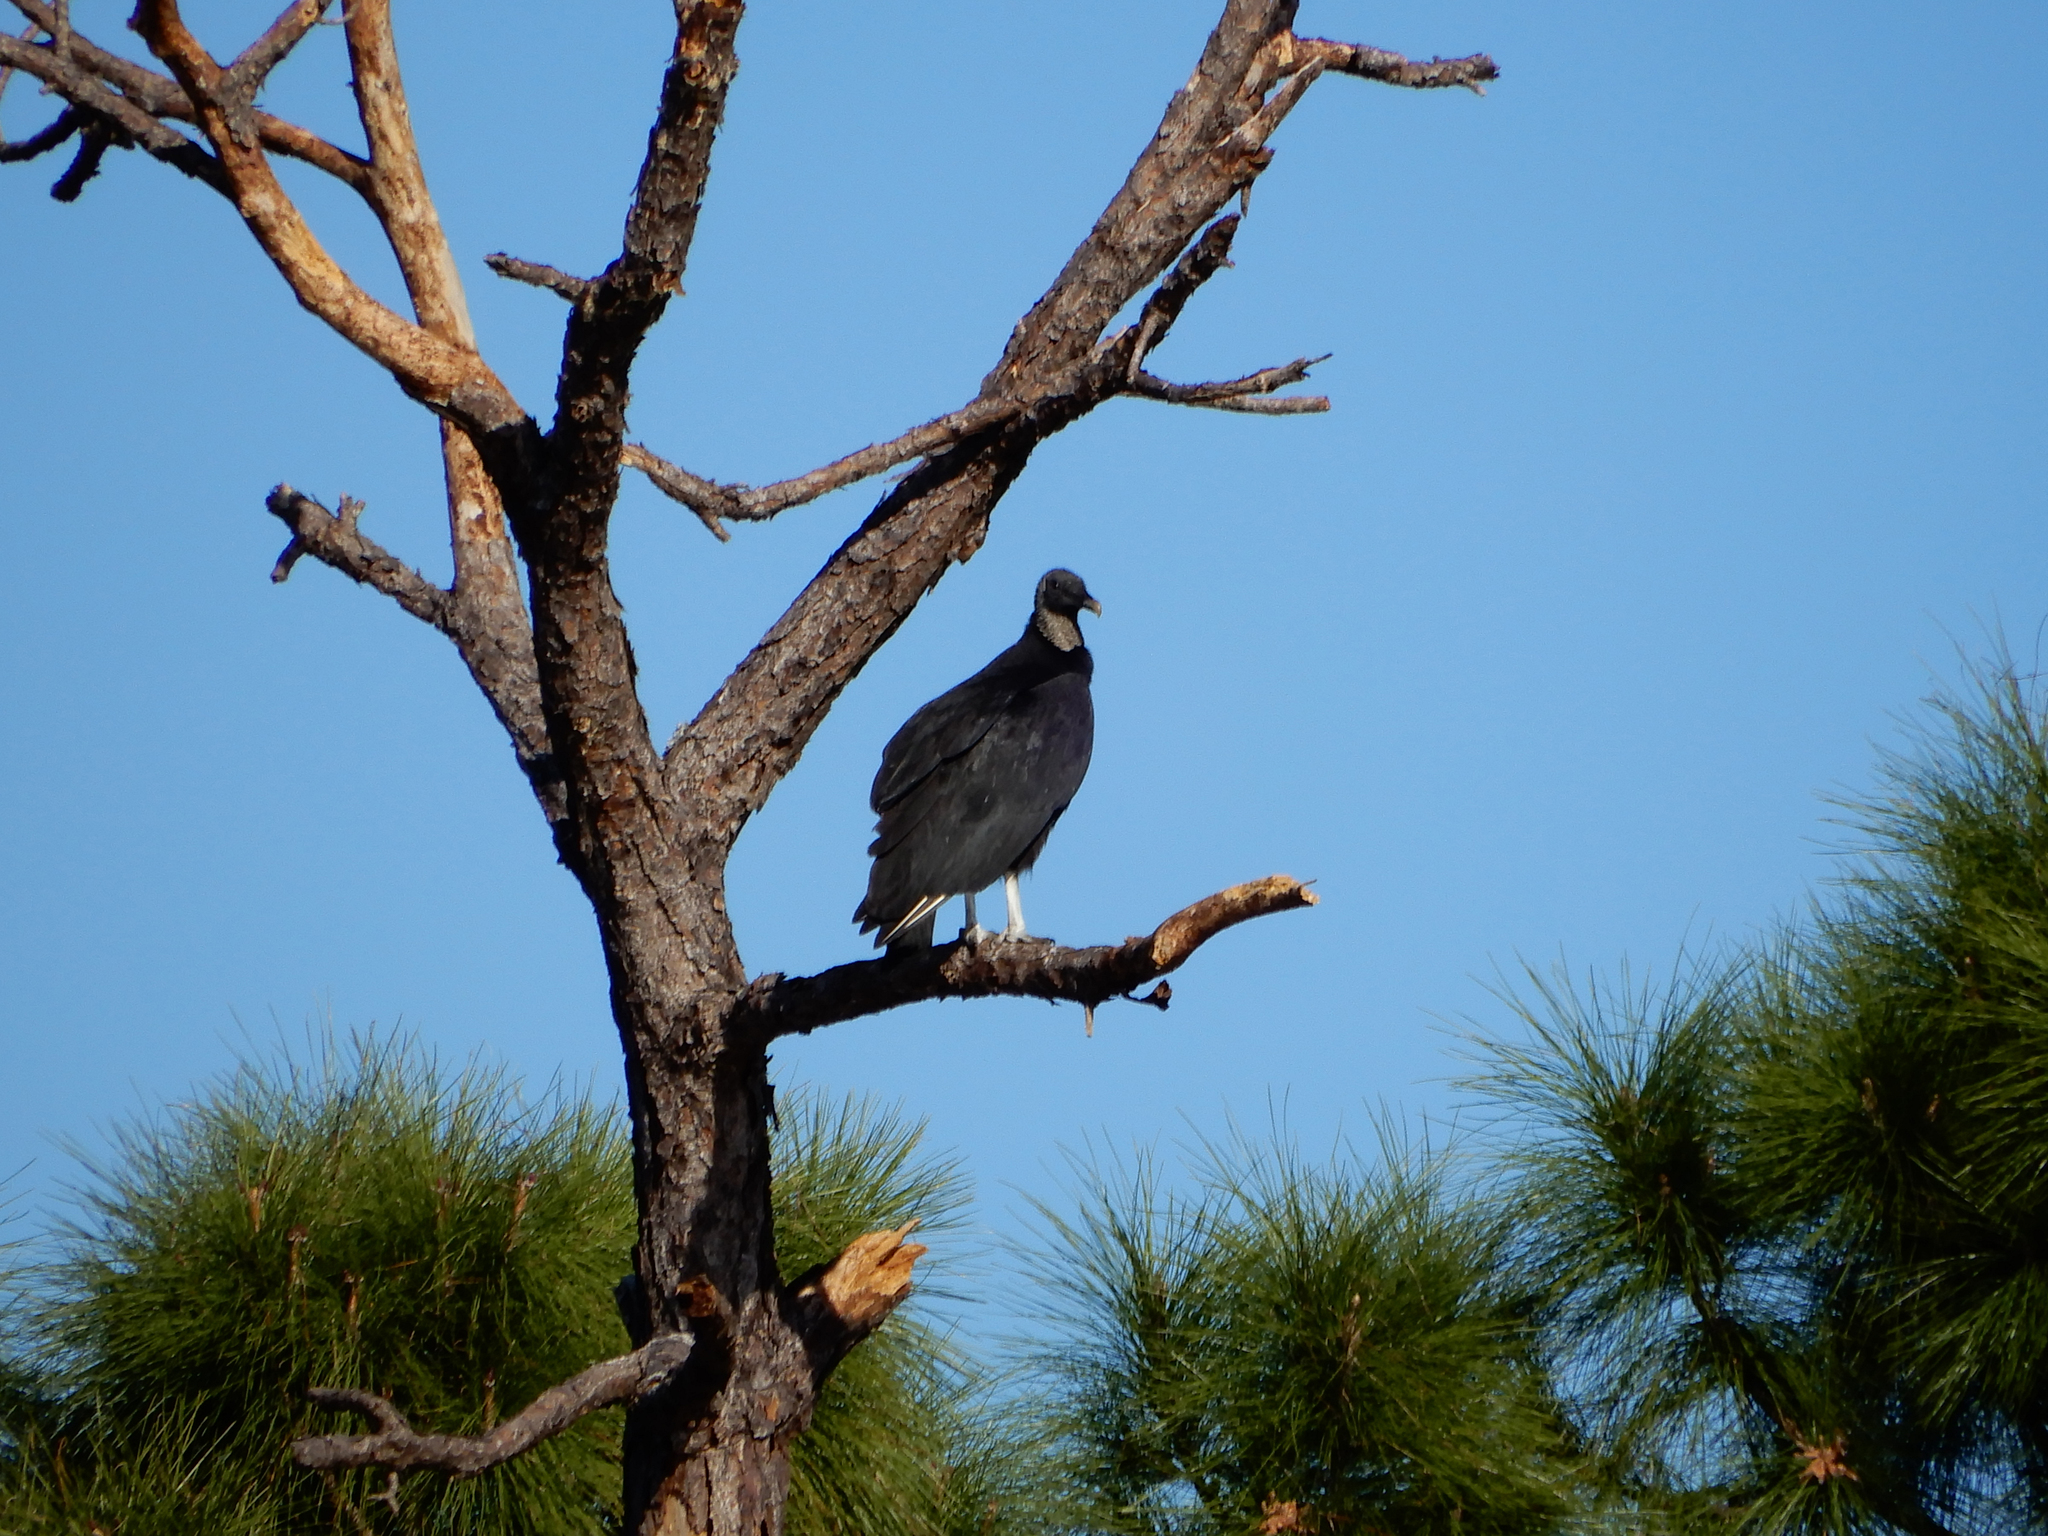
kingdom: Animalia
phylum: Chordata
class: Aves
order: Accipitriformes
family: Cathartidae
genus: Coragyps
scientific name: Coragyps atratus
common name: Black vulture
